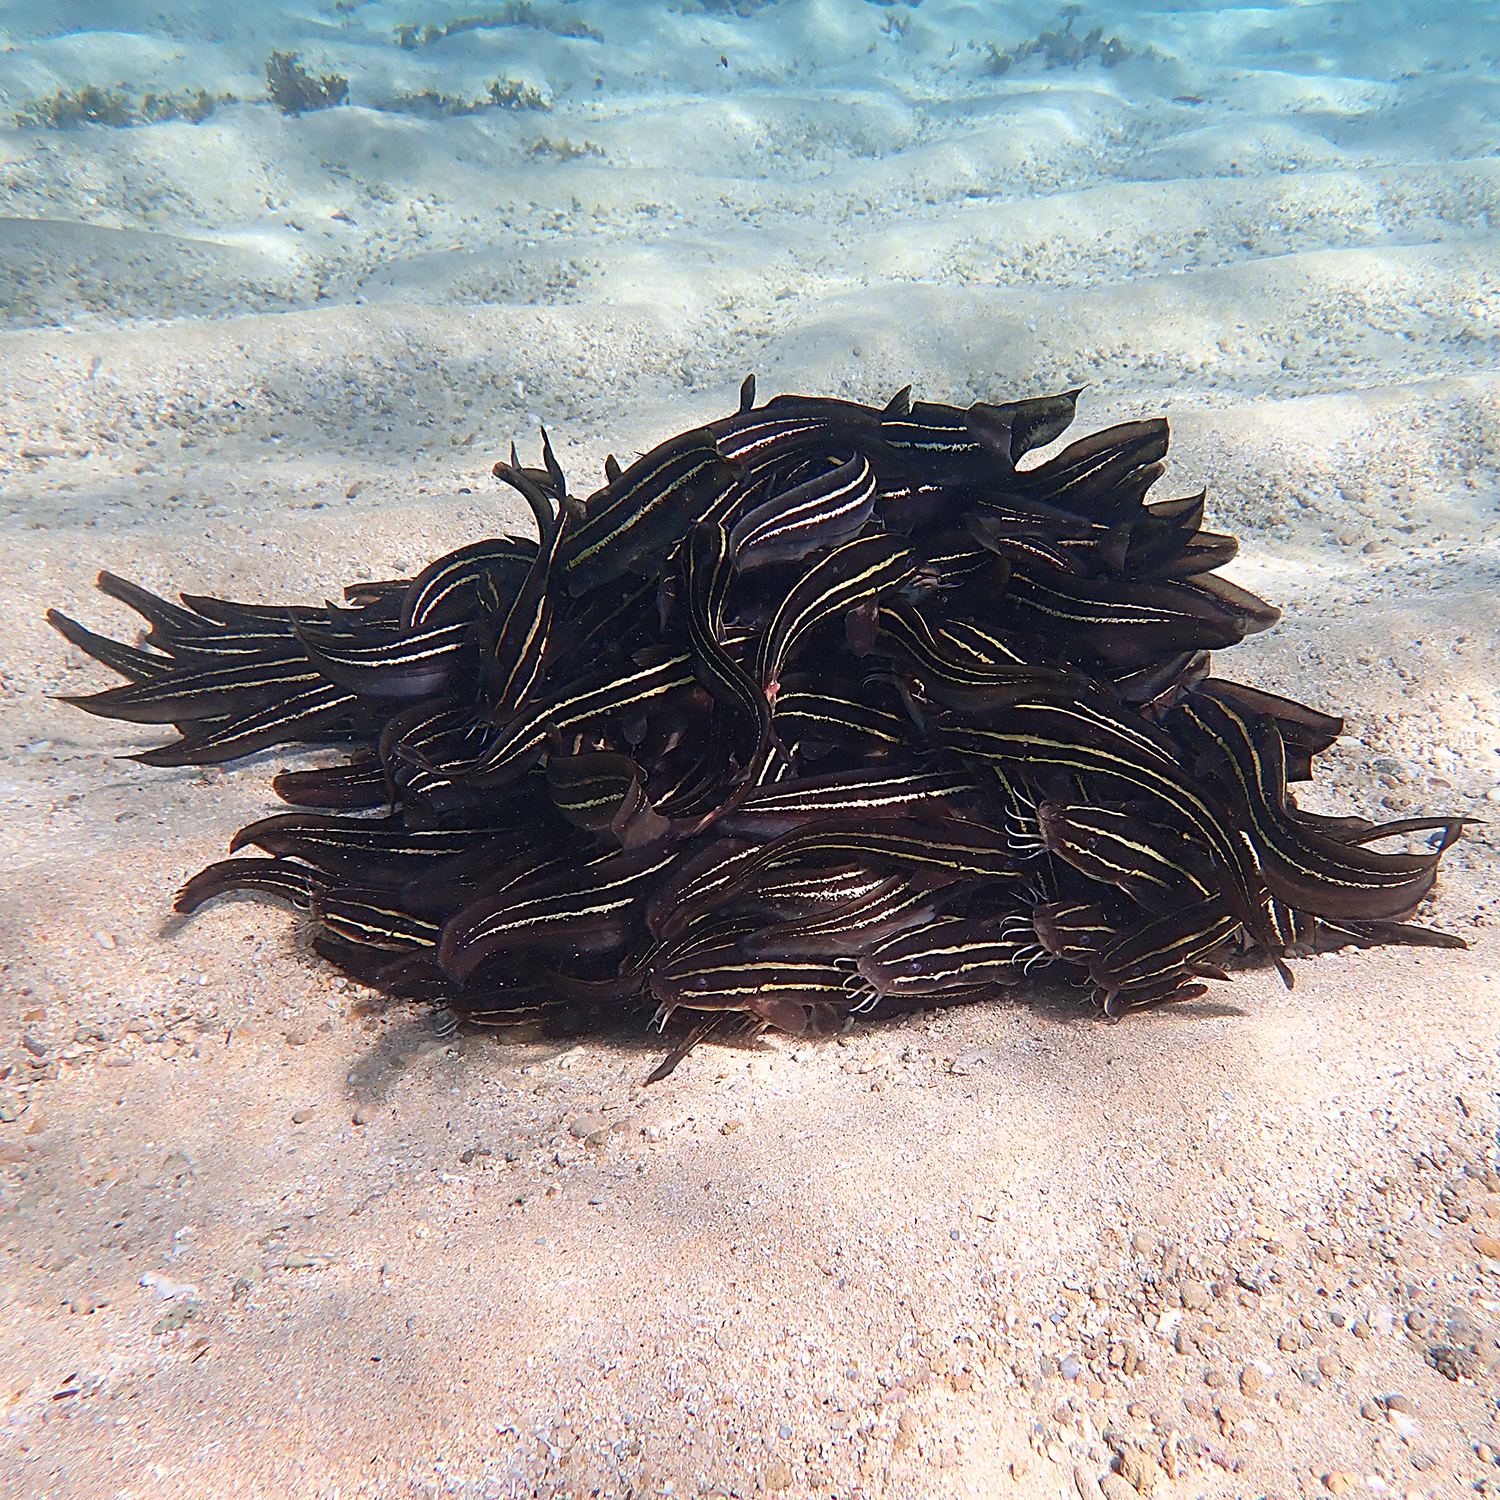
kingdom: Animalia
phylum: Chordata
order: Siluriformes
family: Plotosidae
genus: Plotosus
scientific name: Plotosus lineatus
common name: Striped eel catfish
